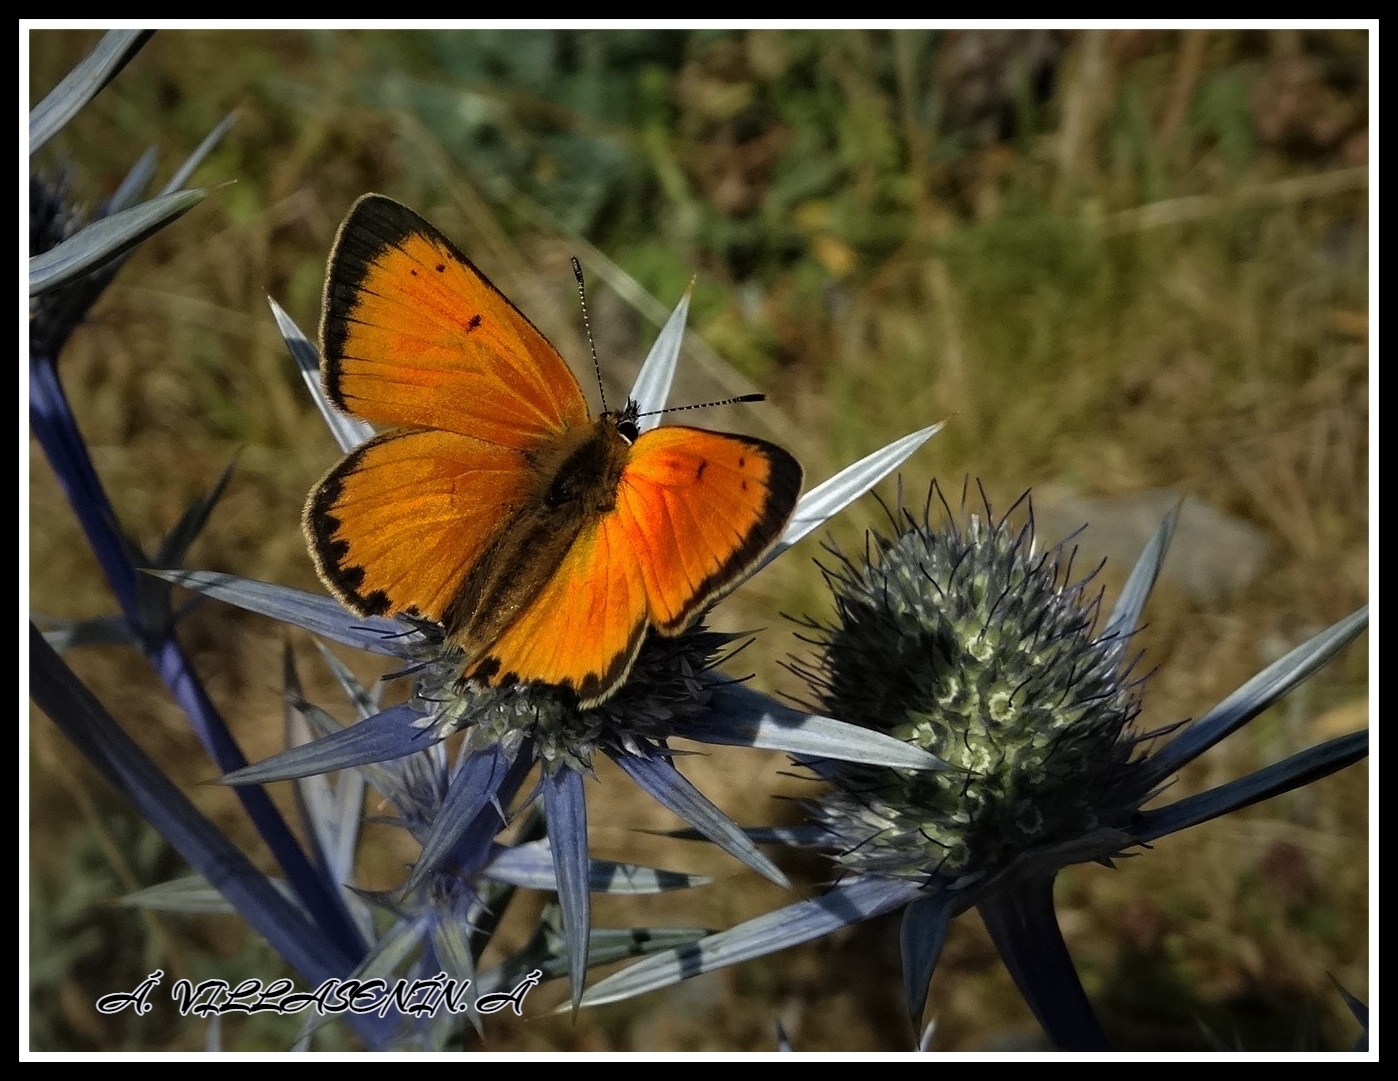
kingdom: Animalia
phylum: Arthropoda
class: Insecta
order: Lepidoptera
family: Lycaenidae
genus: Lycaena
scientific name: Lycaena virgaureae
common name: Scarce copper
